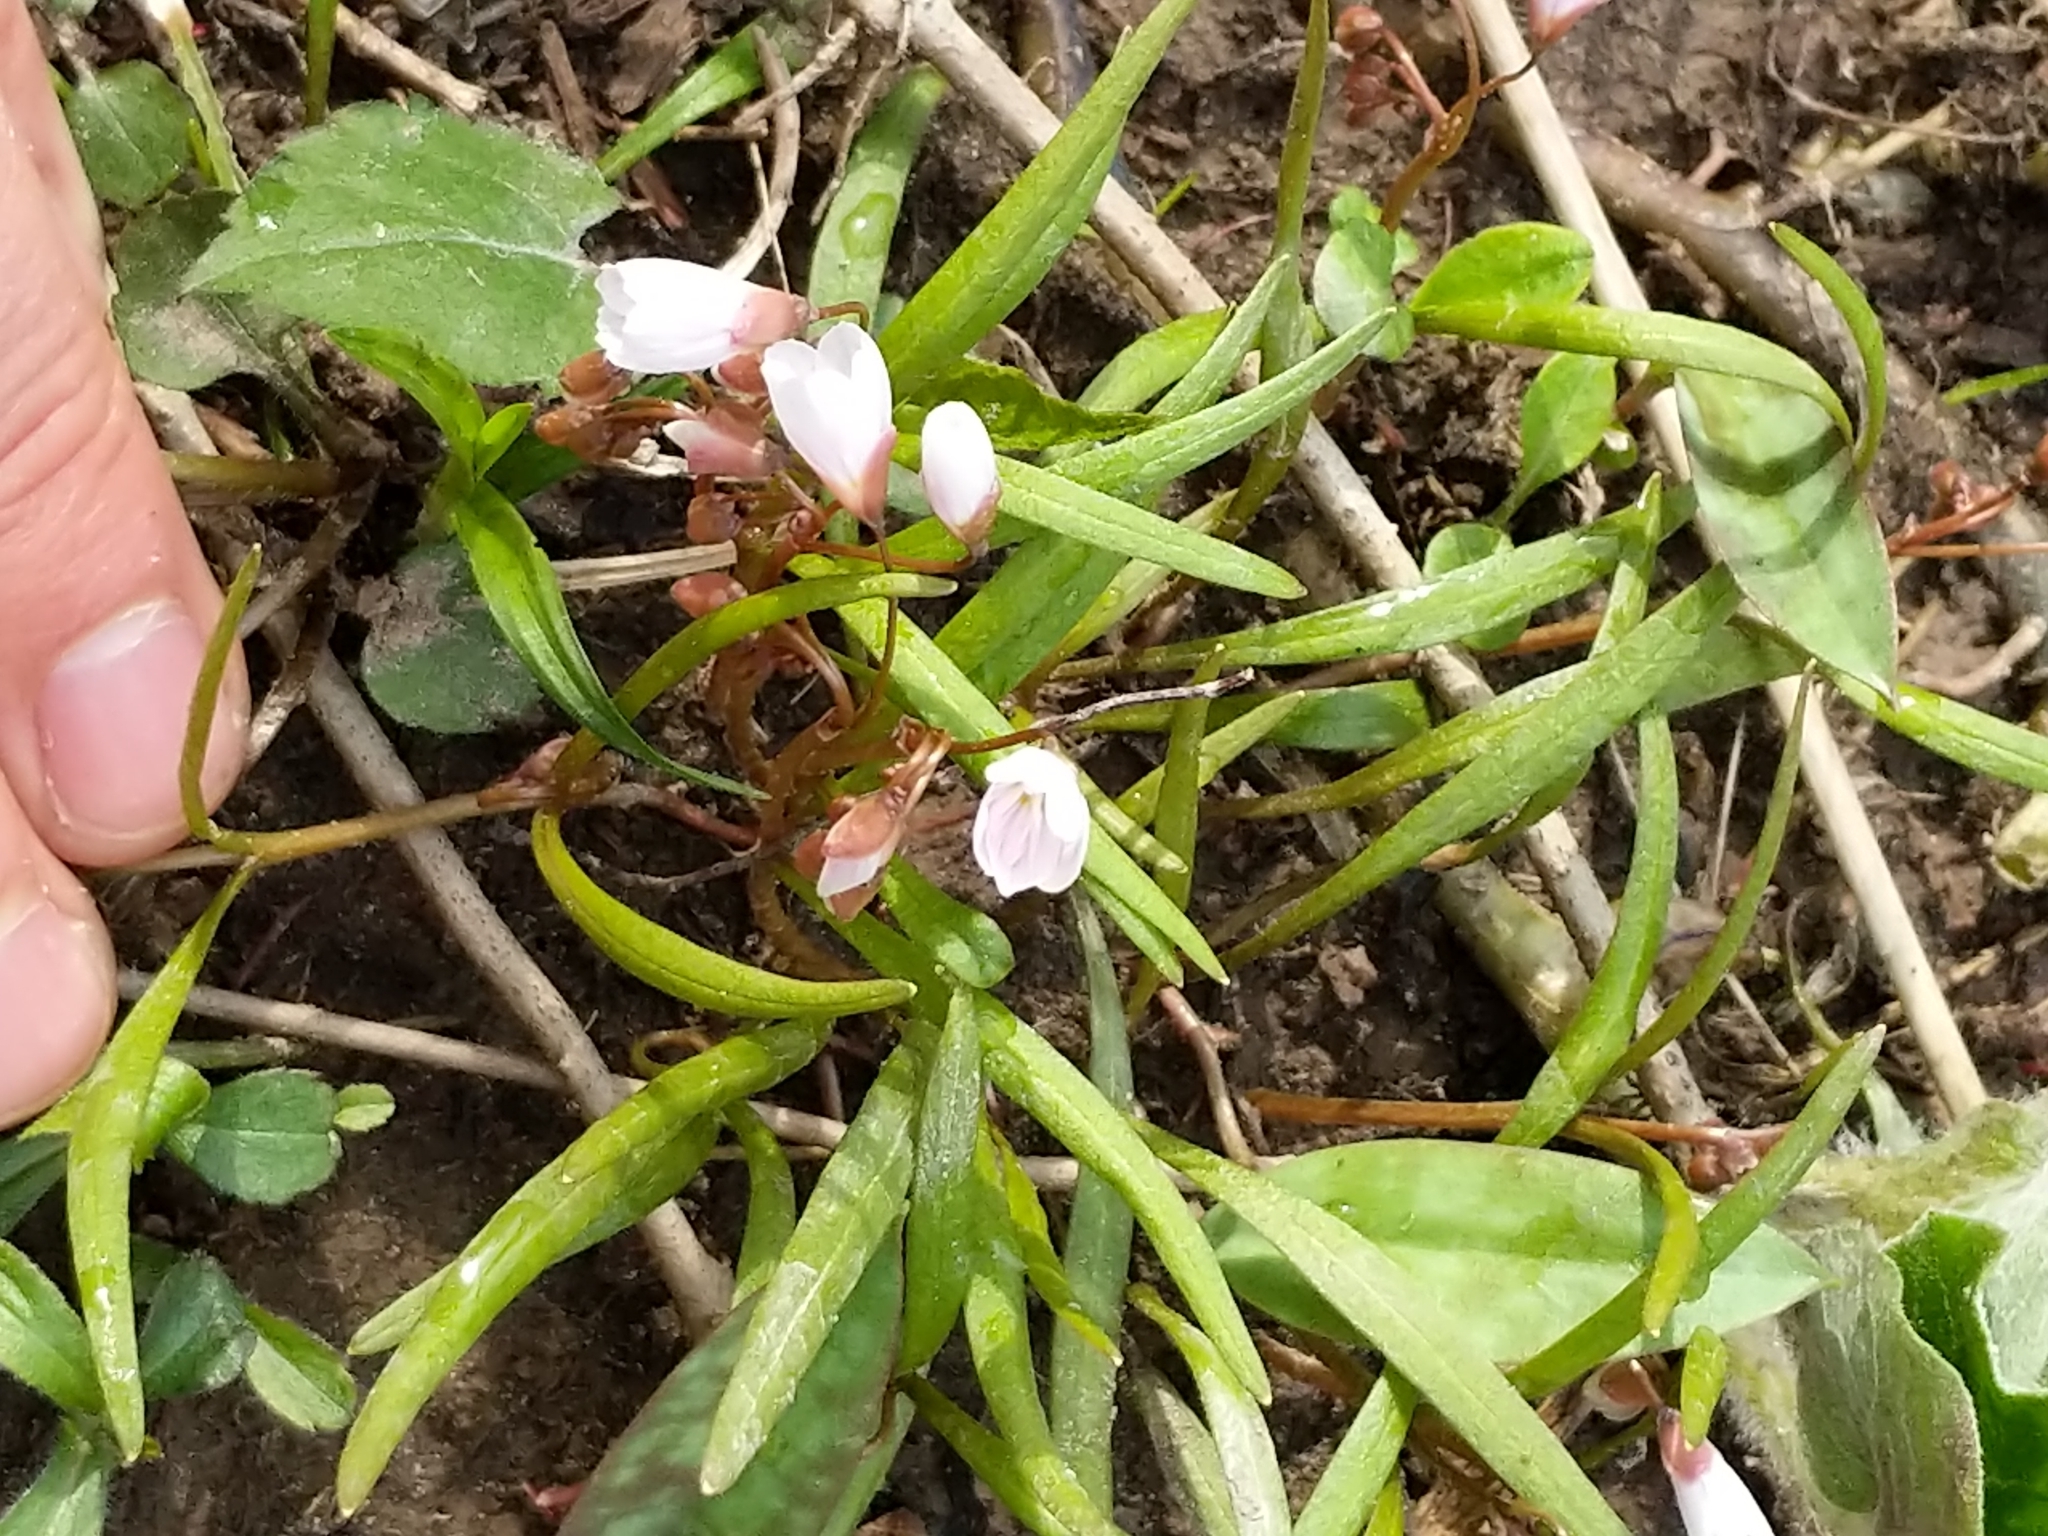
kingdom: Plantae
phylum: Tracheophyta
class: Magnoliopsida
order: Caryophyllales
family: Montiaceae
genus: Claytonia
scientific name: Claytonia virginica
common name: Virginia springbeauty
